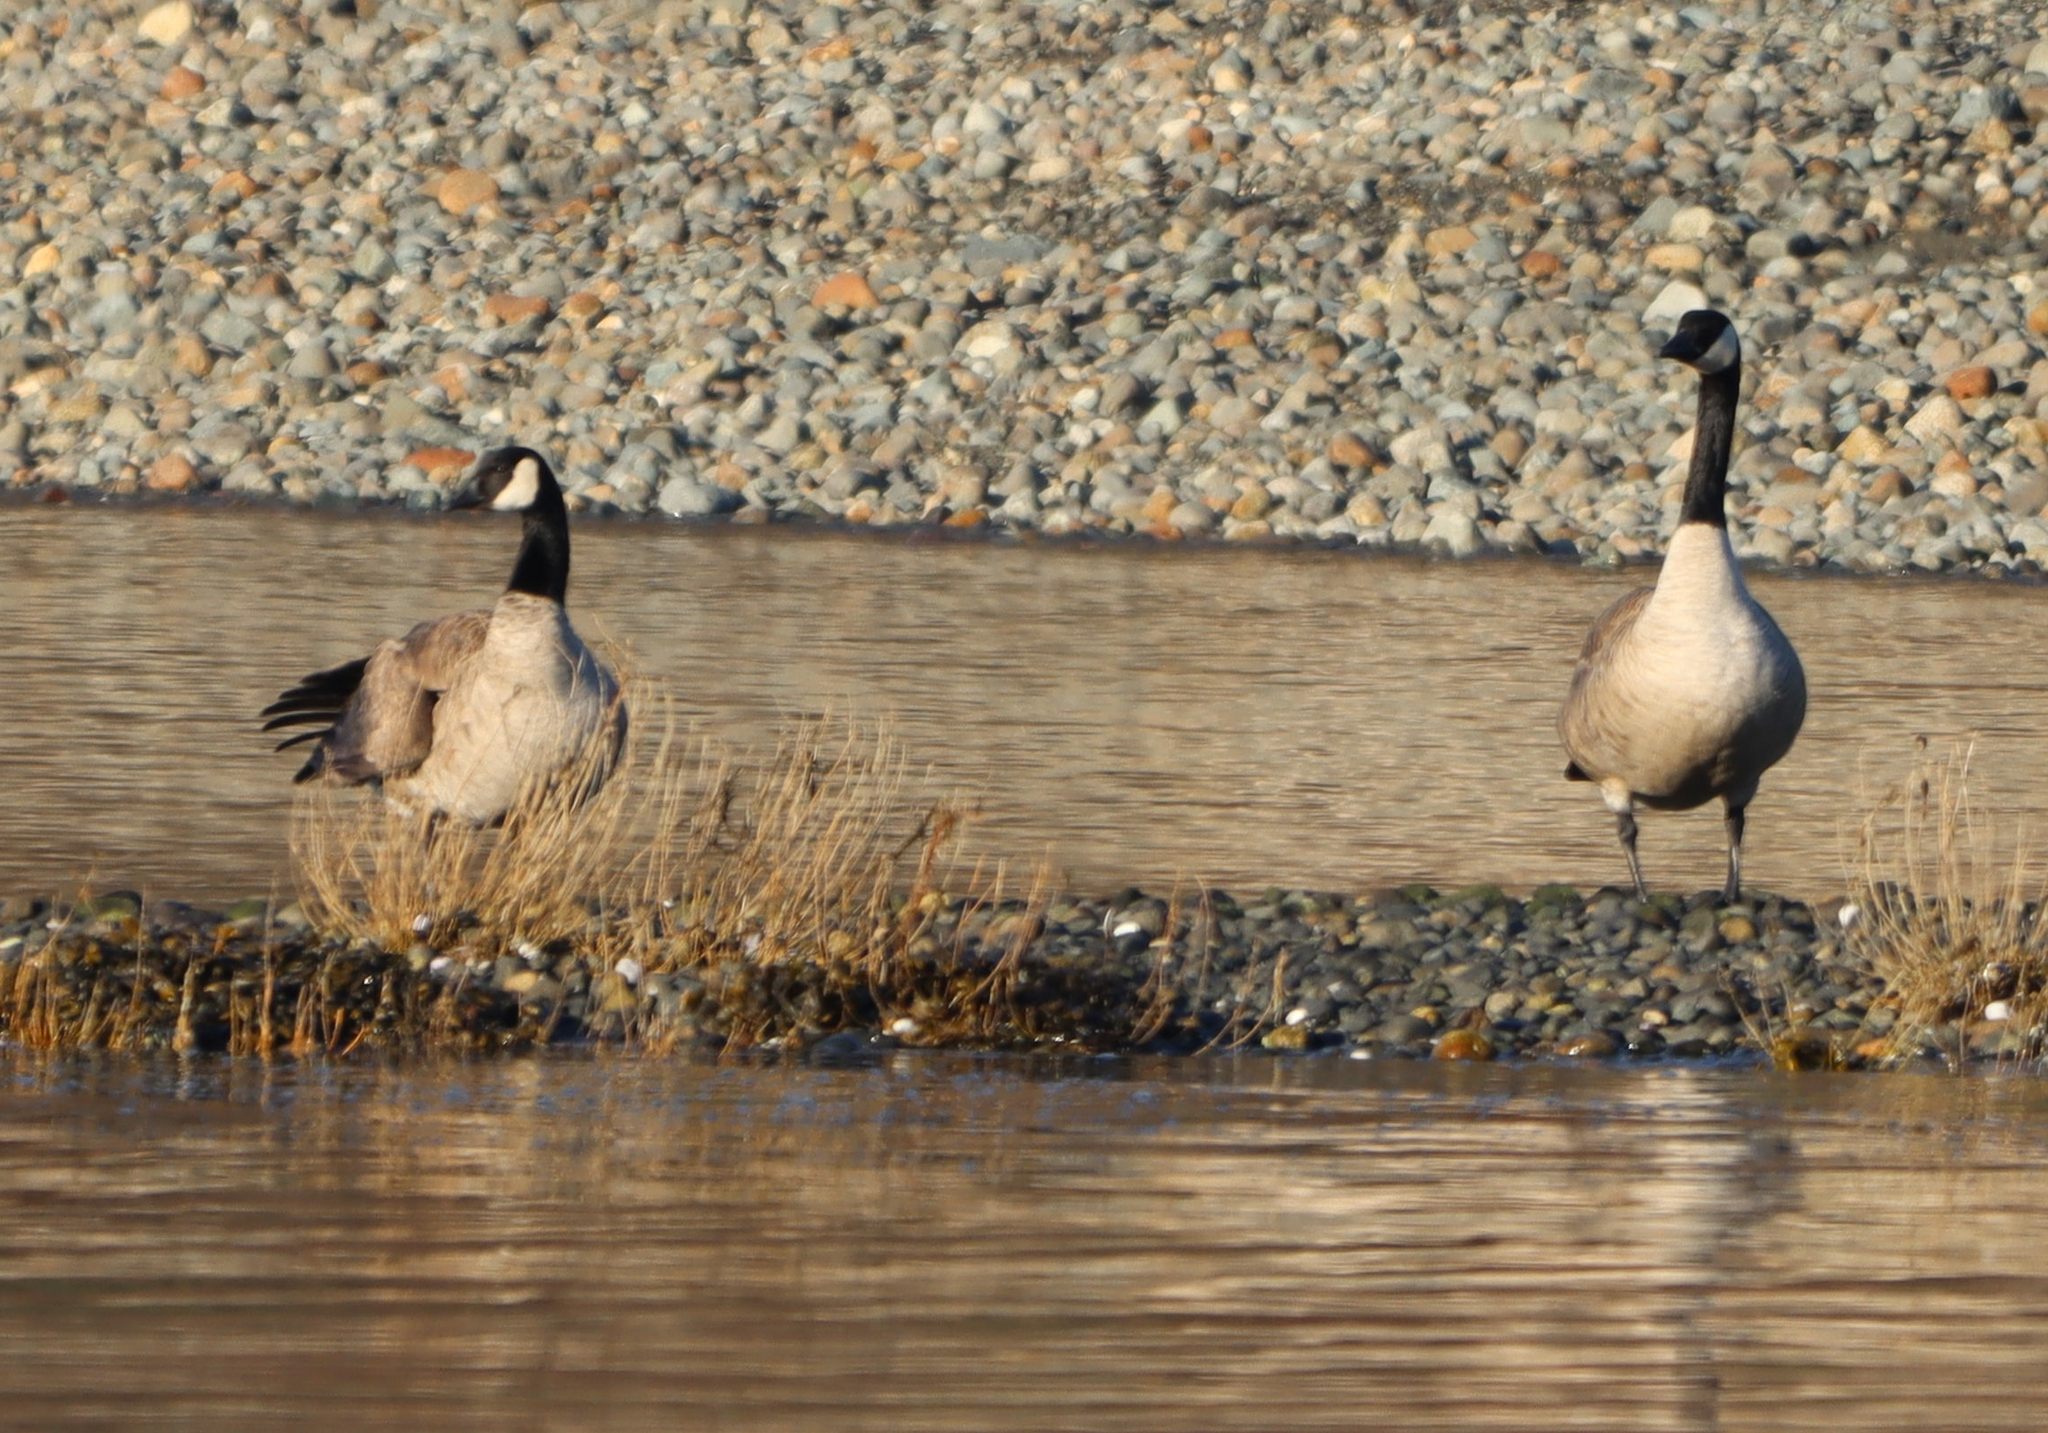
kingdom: Animalia
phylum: Chordata
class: Aves
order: Anseriformes
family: Anatidae
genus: Branta
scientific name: Branta canadensis
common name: Canada goose
